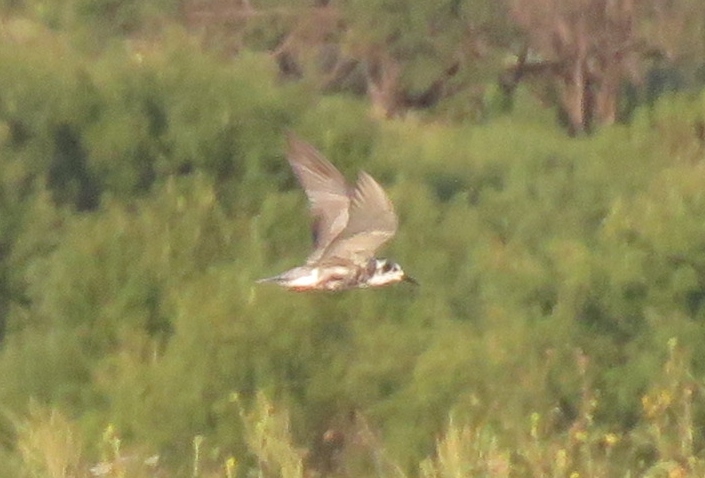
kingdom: Animalia
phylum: Chordata
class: Aves
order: Charadriiformes
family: Laridae
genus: Chlidonias
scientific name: Chlidonias niger
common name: Black tern
